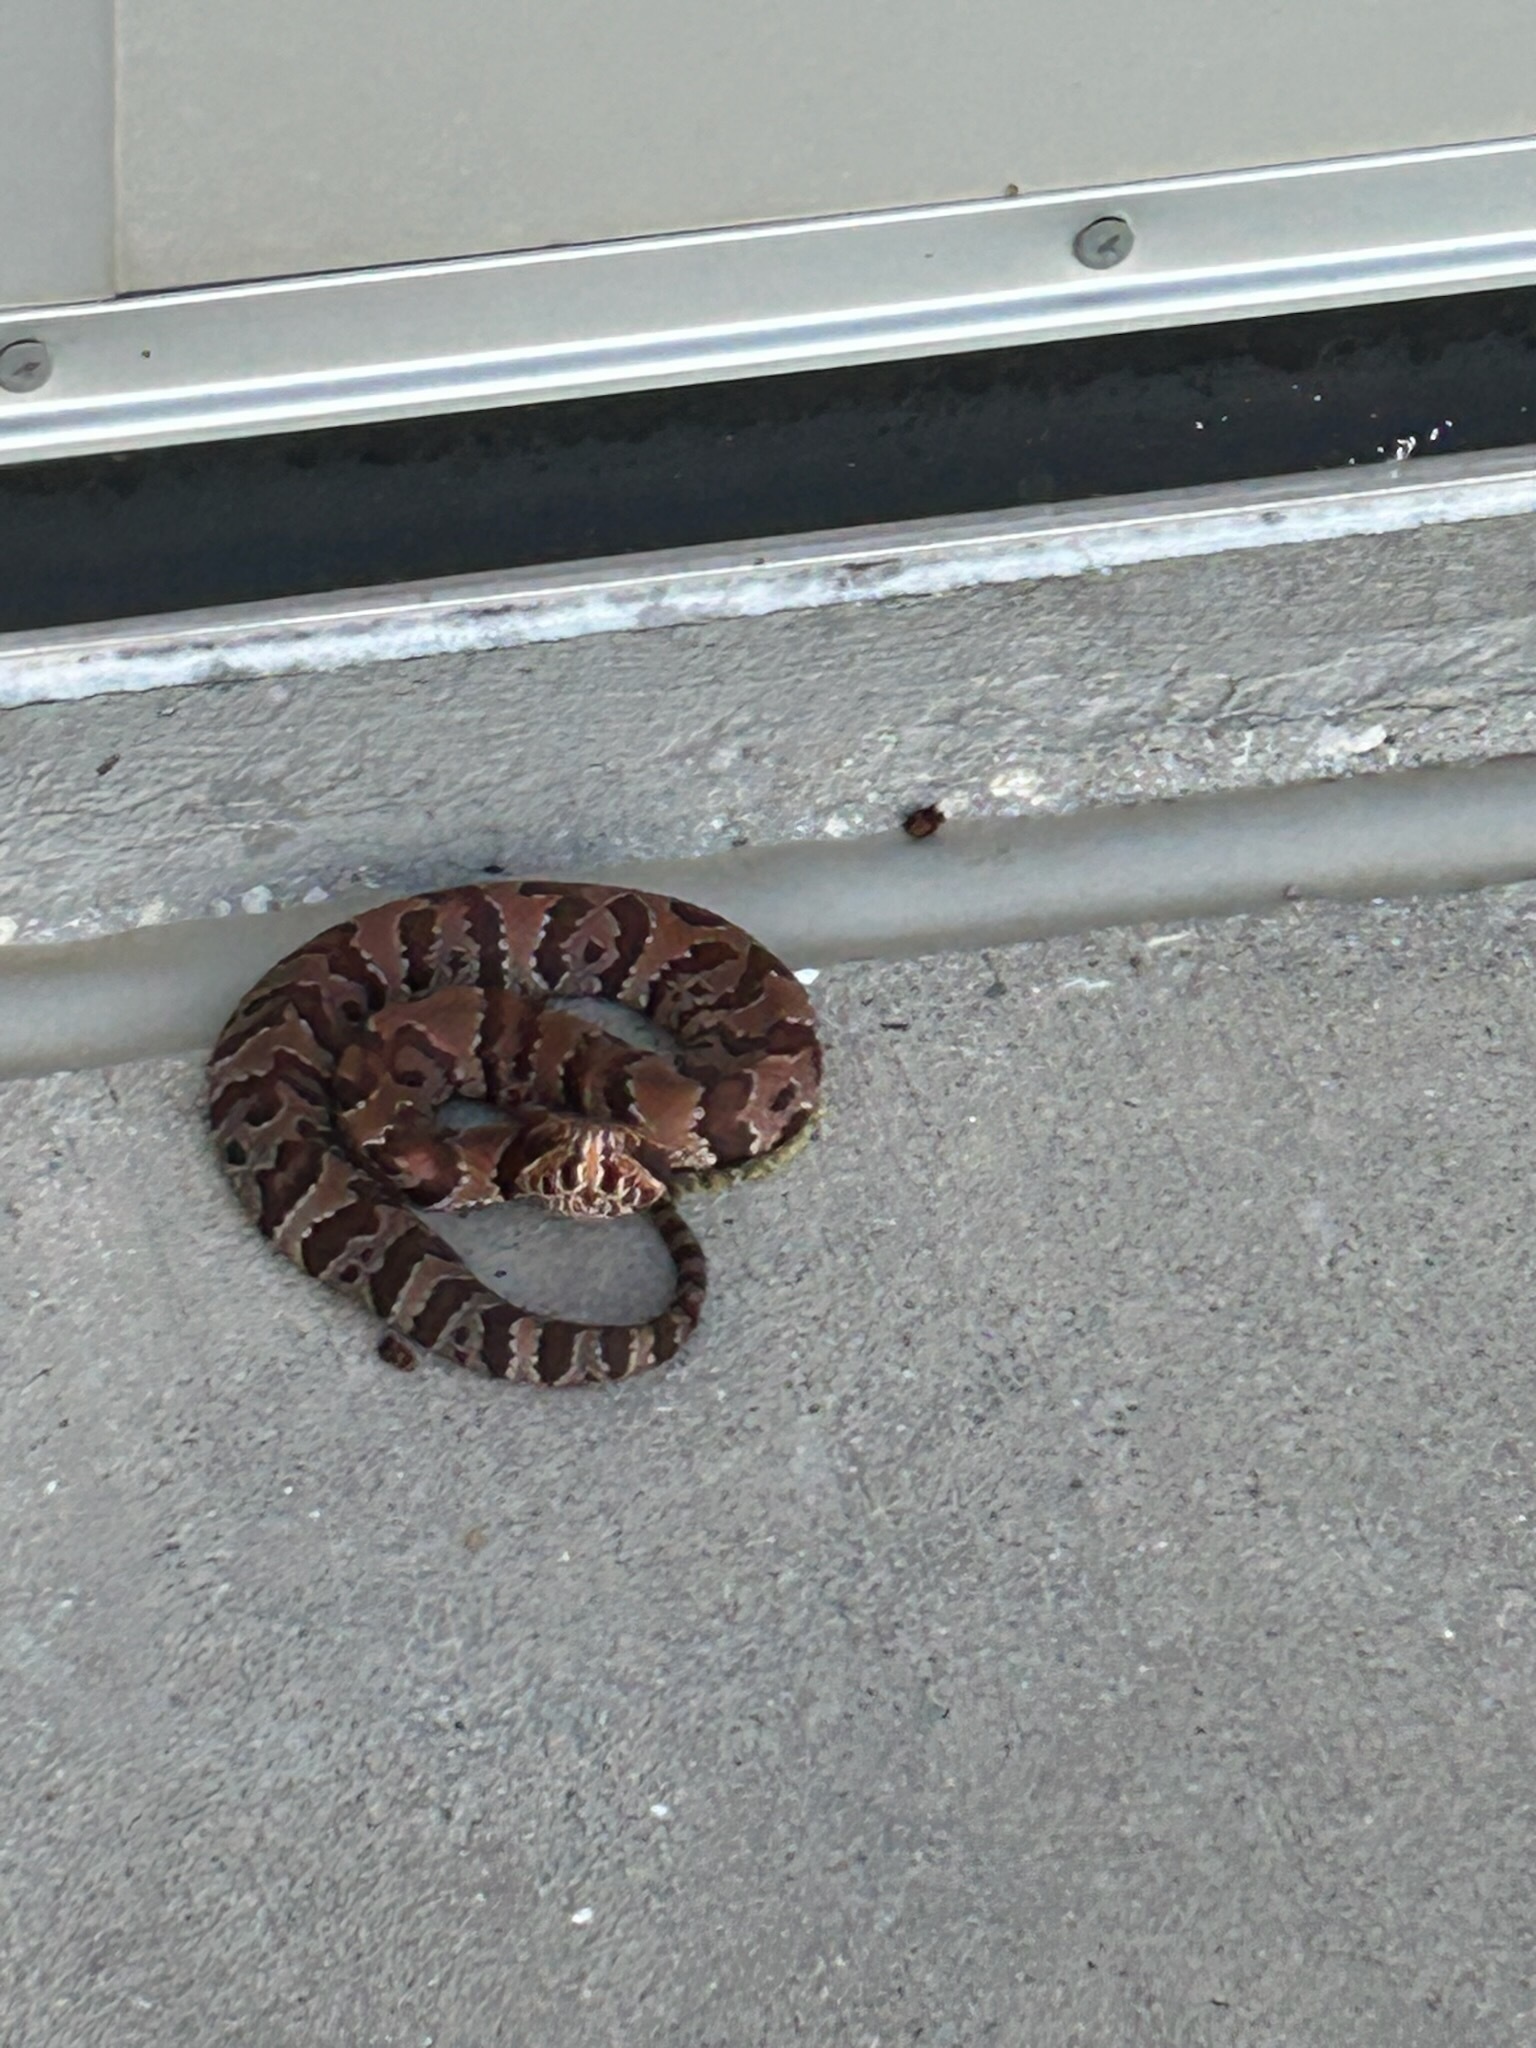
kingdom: Animalia
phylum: Chordata
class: Squamata
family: Viperidae
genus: Agkistrodon
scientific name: Agkistrodon conanti
